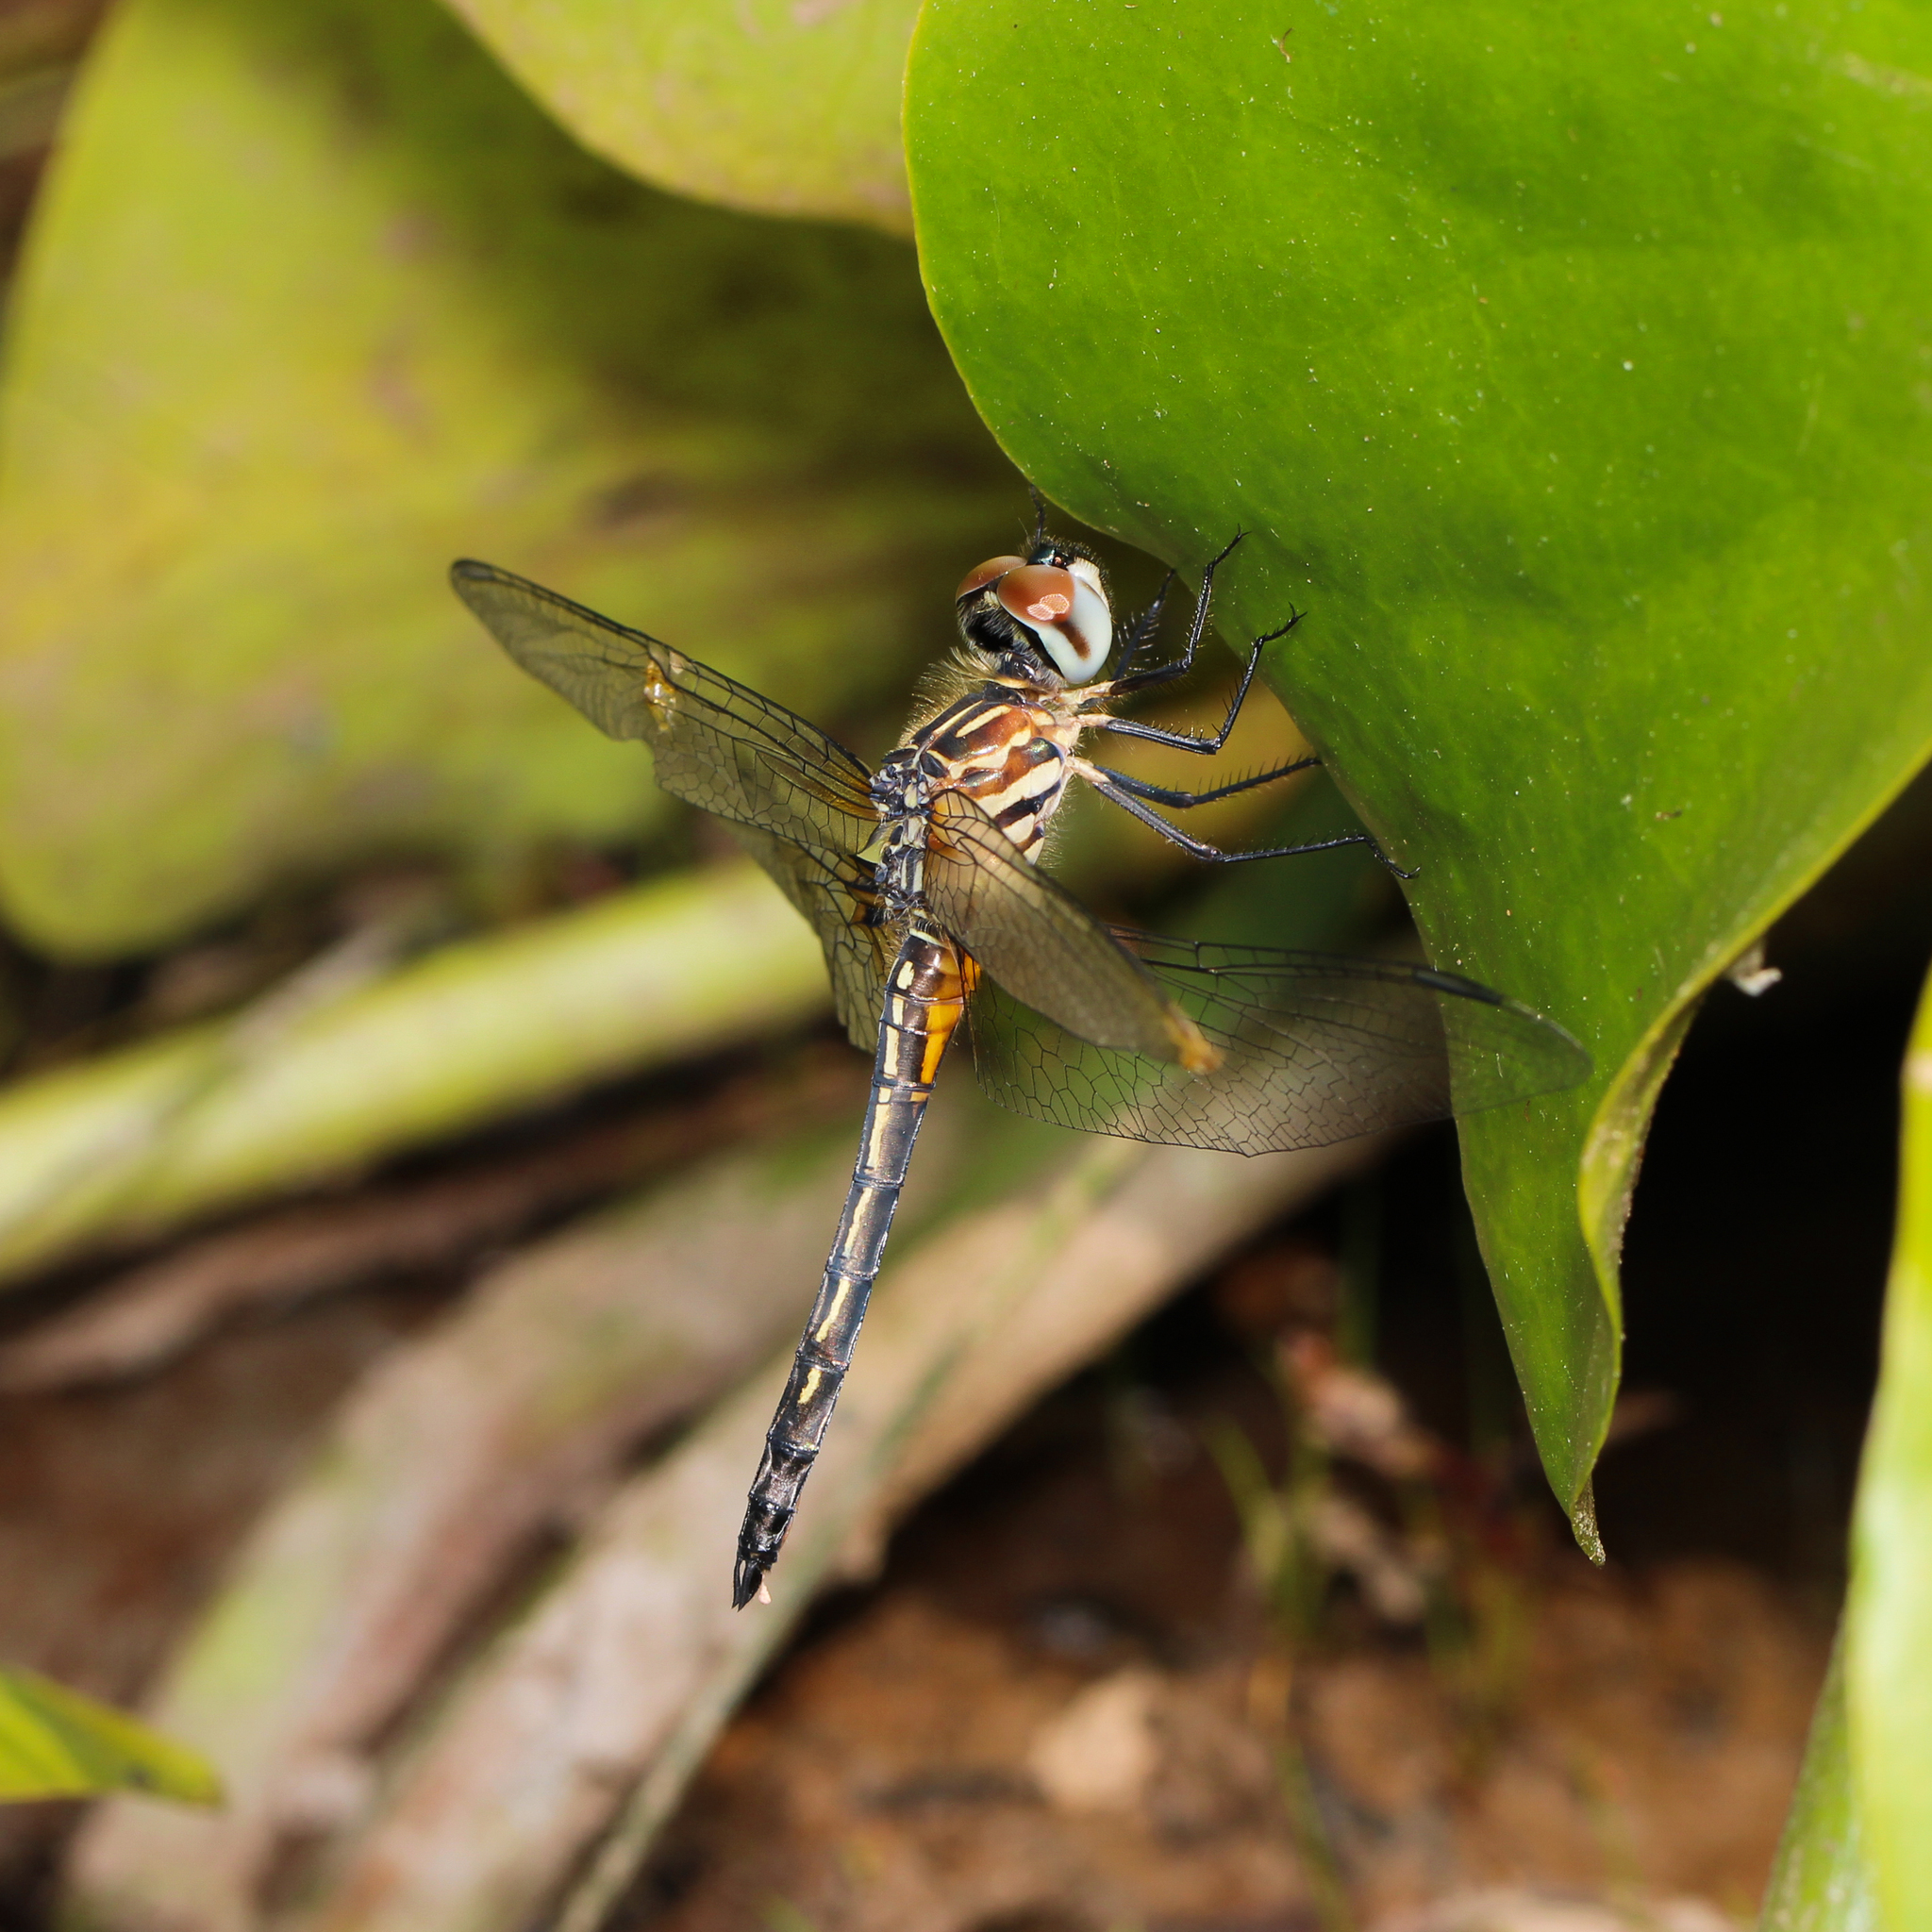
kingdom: Animalia
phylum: Arthropoda
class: Insecta
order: Odonata
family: Libellulidae
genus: Pachydiplax
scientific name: Pachydiplax longipennis
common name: Blue dasher
